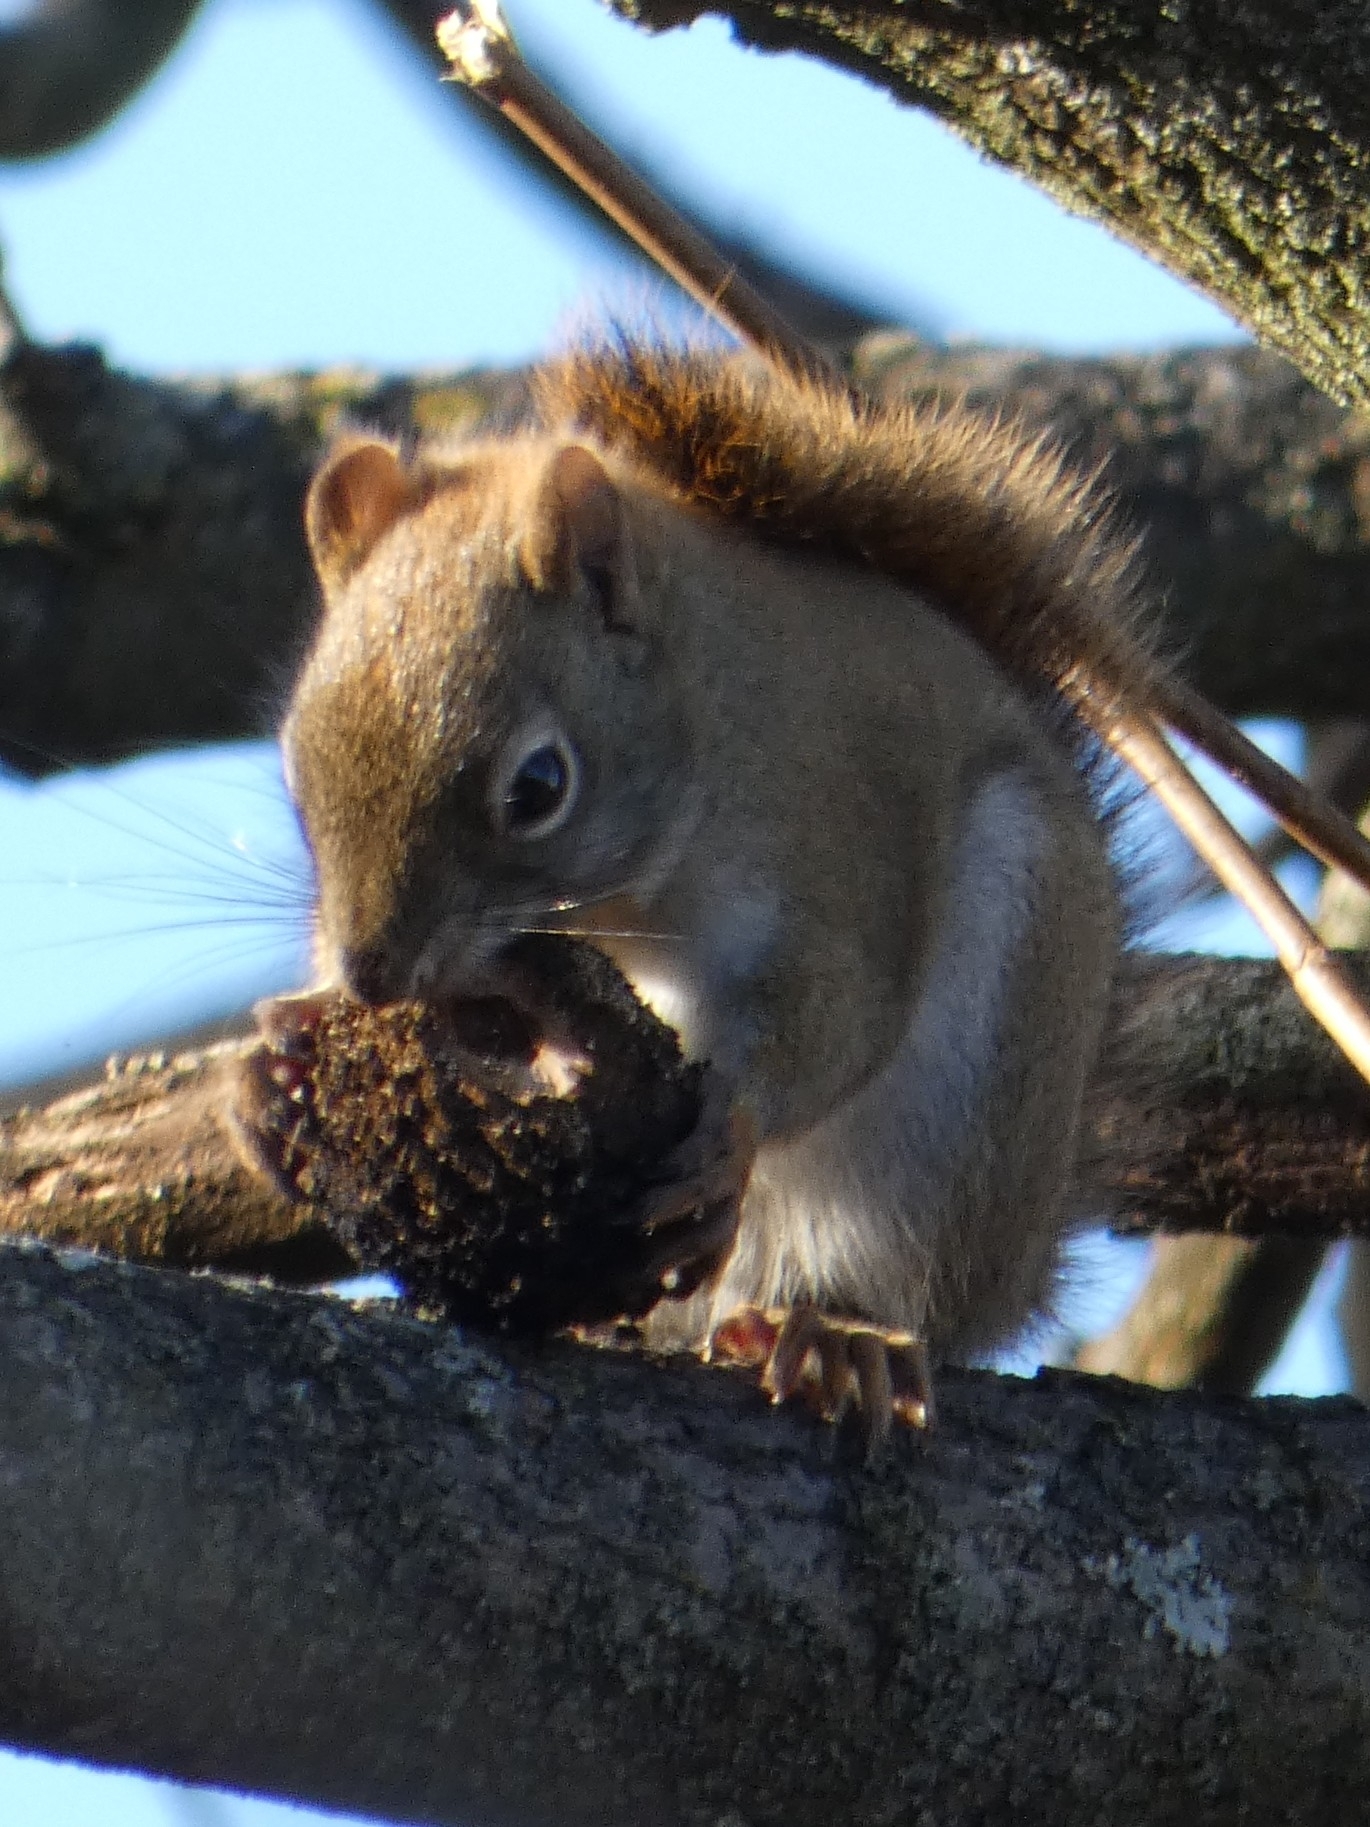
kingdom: Animalia
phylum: Chordata
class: Mammalia
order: Rodentia
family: Sciuridae
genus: Tamiasciurus
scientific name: Tamiasciurus hudsonicus
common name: Red squirrel
